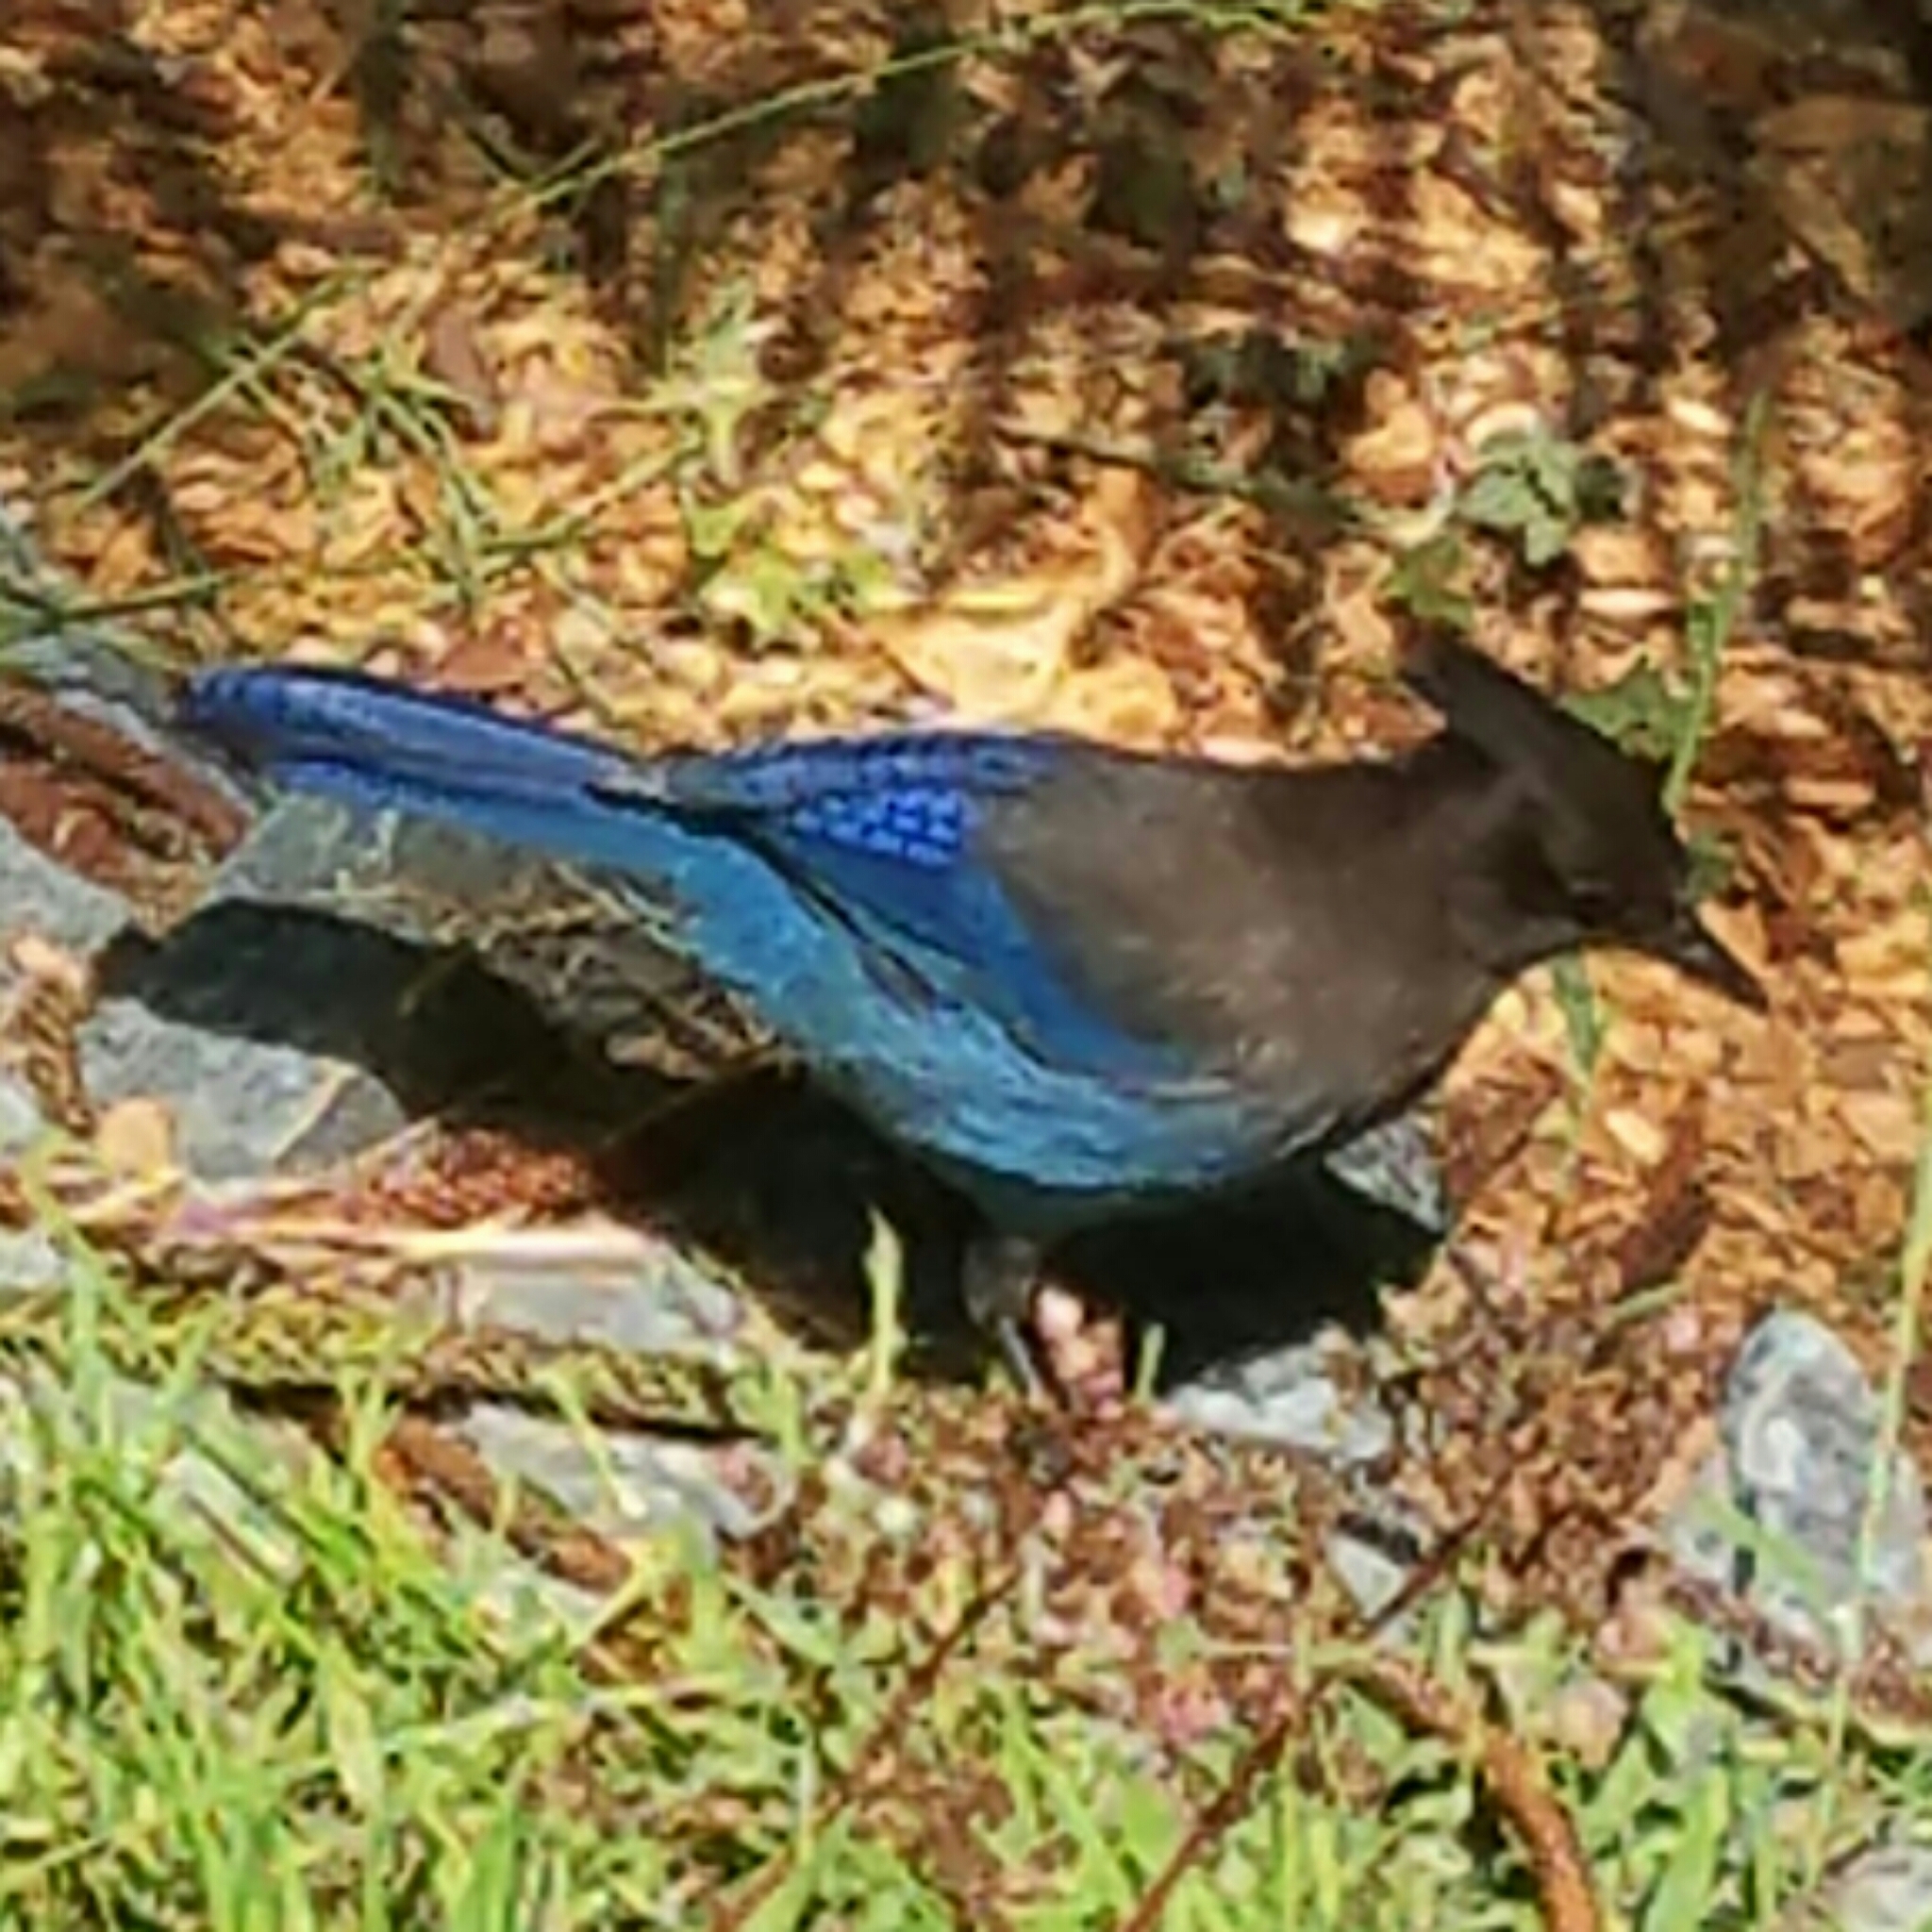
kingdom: Animalia
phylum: Chordata
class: Aves
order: Passeriformes
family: Corvidae
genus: Cyanocitta
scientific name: Cyanocitta stelleri
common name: Steller's jay
